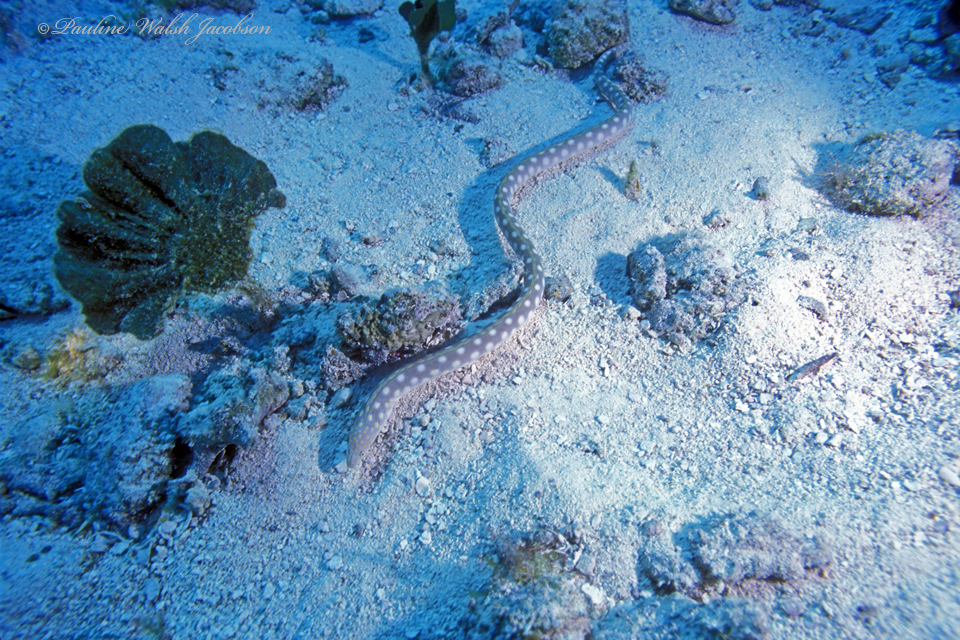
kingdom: Animalia
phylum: Chordata
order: Anguilliformes
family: Ophichthidae
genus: Myrichthys
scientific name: Myrichthys breviceps
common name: Sharptail eel
